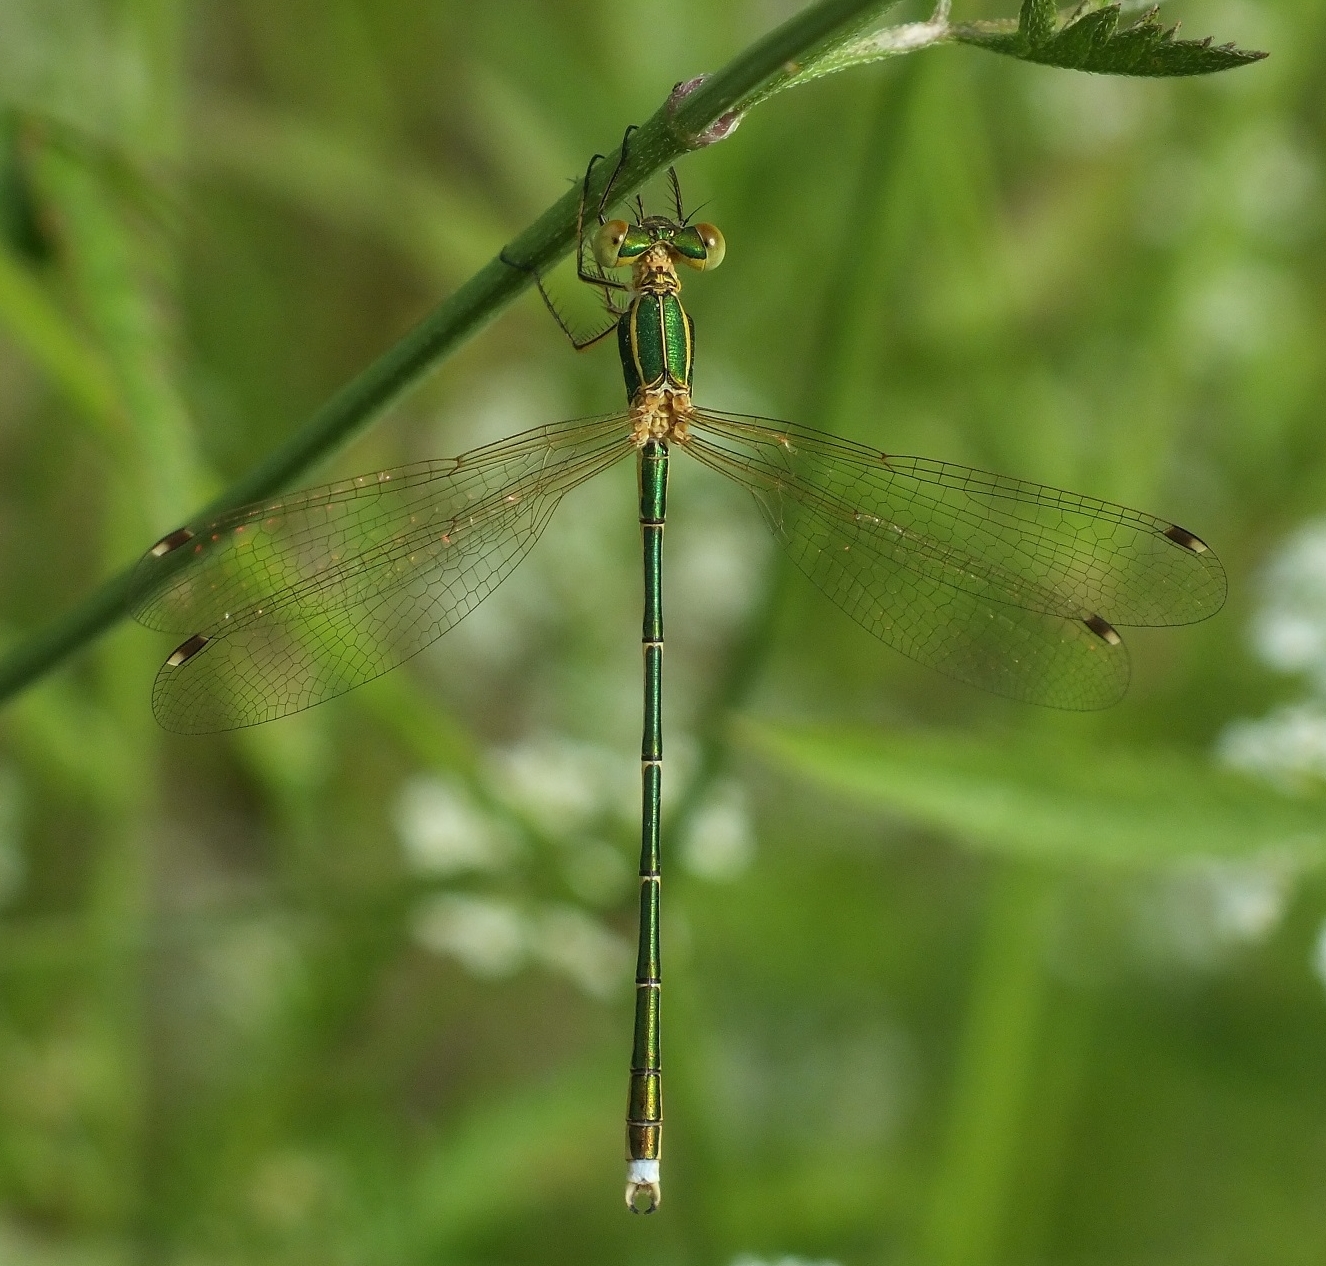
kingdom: Animalia
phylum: Arthropoda
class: Insecta
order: Odonata
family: Lestidae
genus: Lestes
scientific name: Lestes barbarus
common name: Migrant spreadwing
